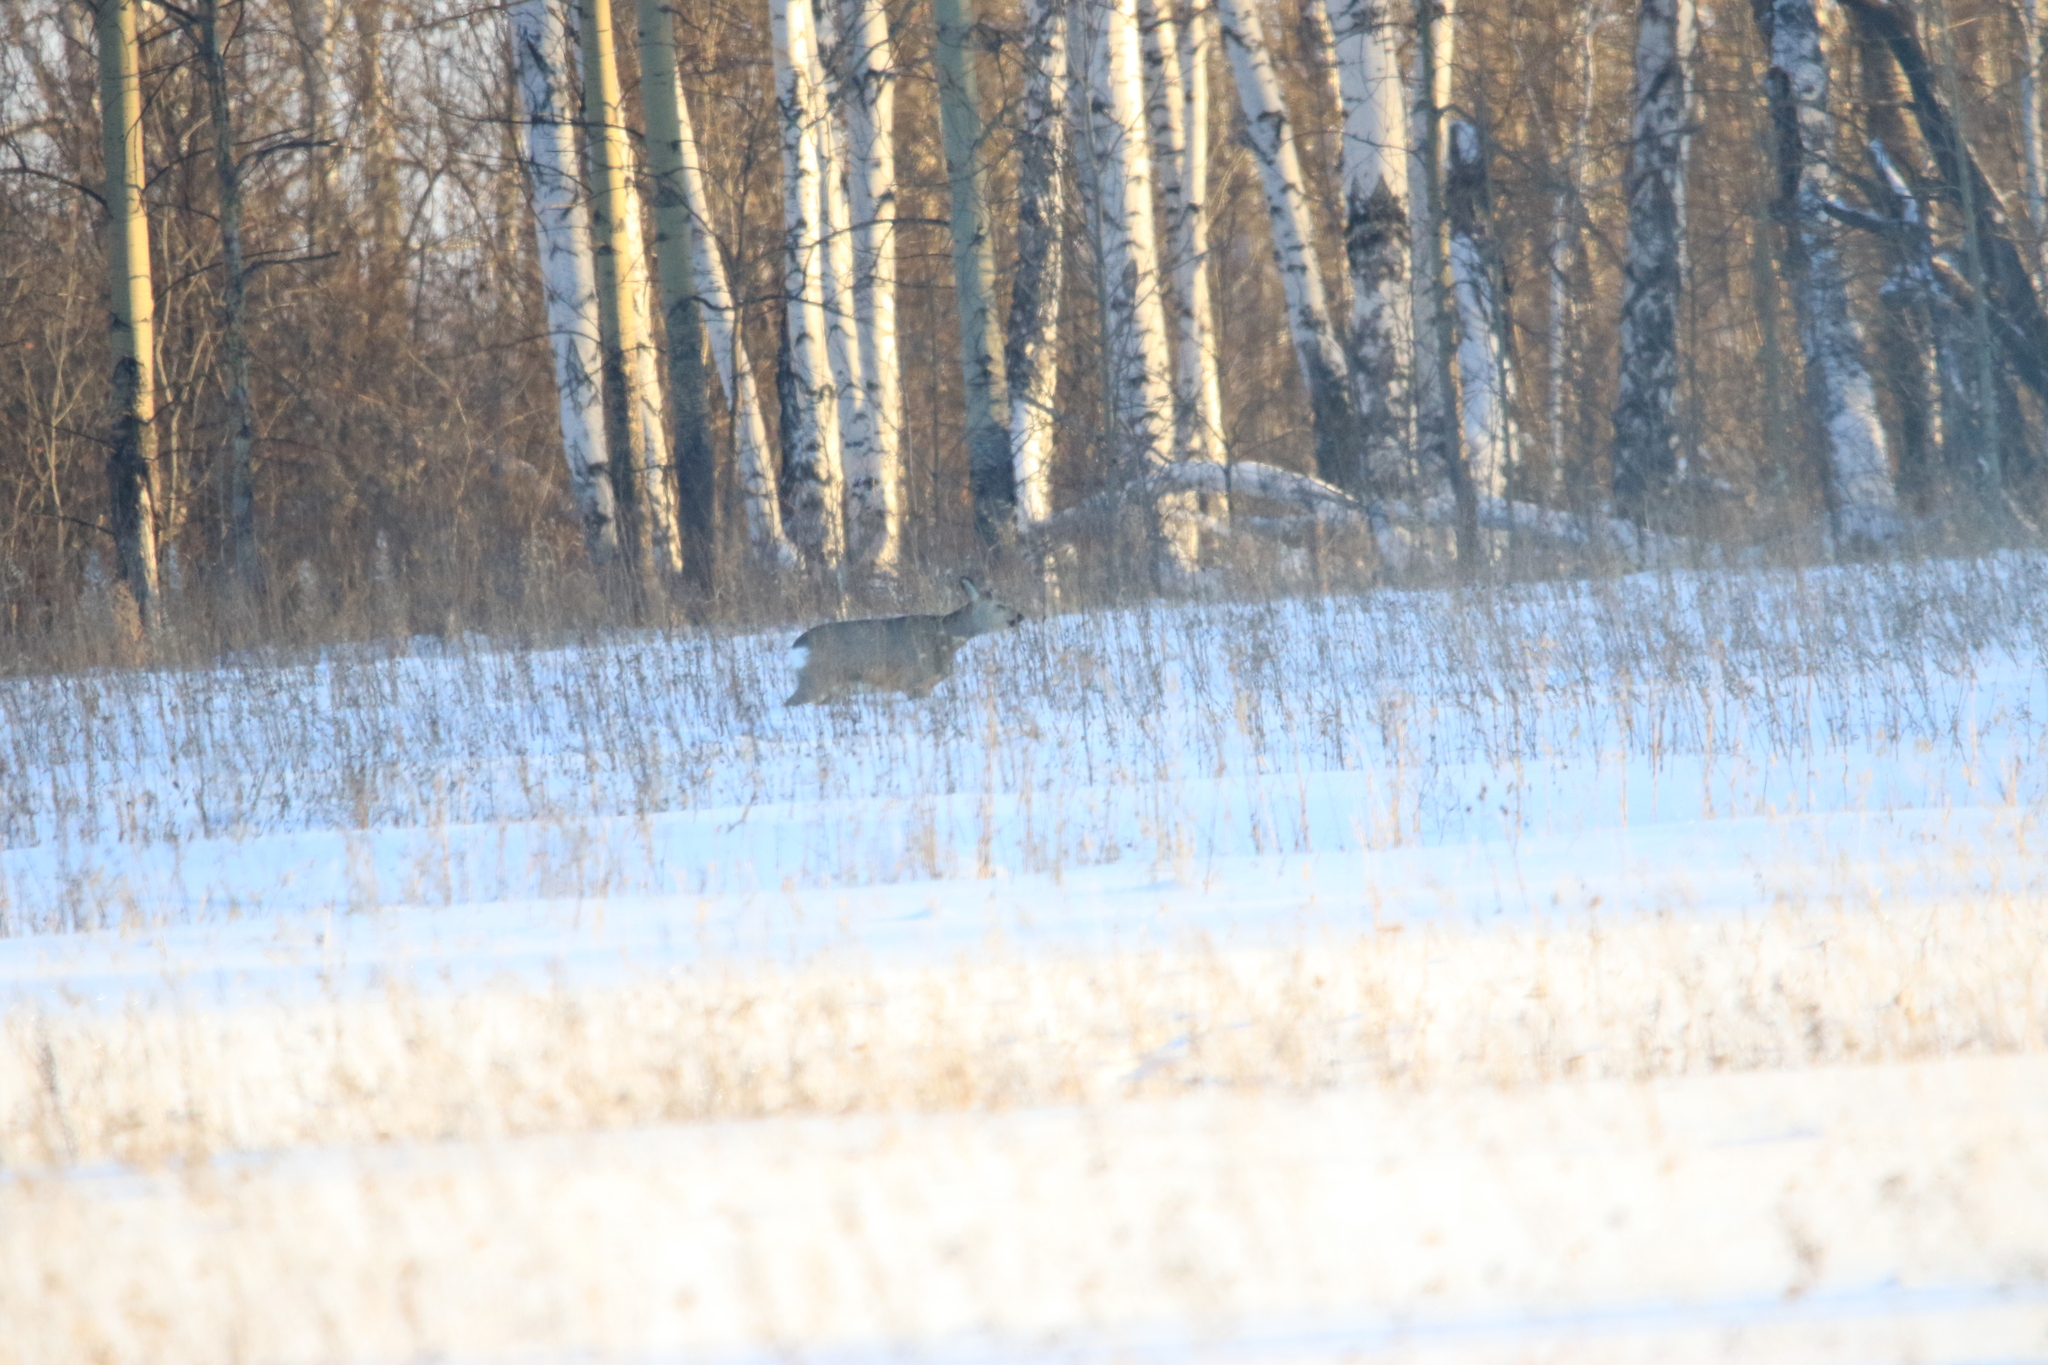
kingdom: Animalia
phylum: Chordata
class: Mammalia
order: Artiodactyla
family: Cervidae
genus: Capreolus
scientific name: Capreolus pygargus
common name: Siberian roe
